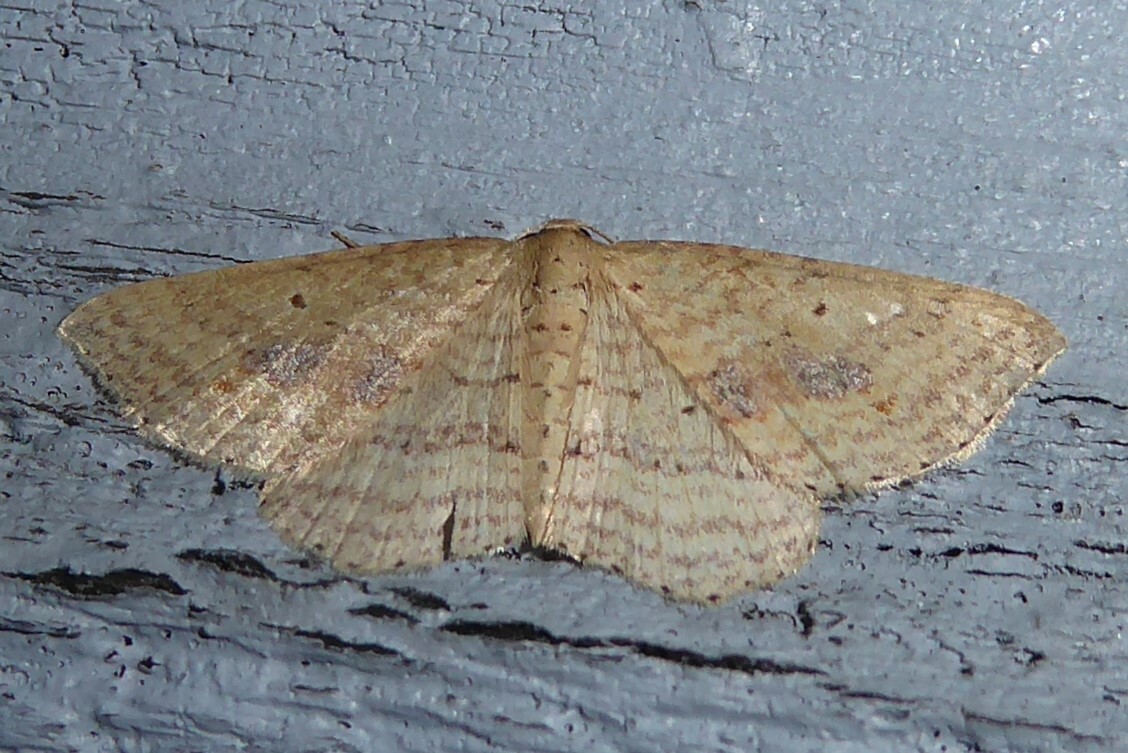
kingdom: Animalia
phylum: Arthropoda
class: Insecta
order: Lepidoptera
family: Geometridae
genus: Epicyme
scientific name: Epicyme rubropunctaria
